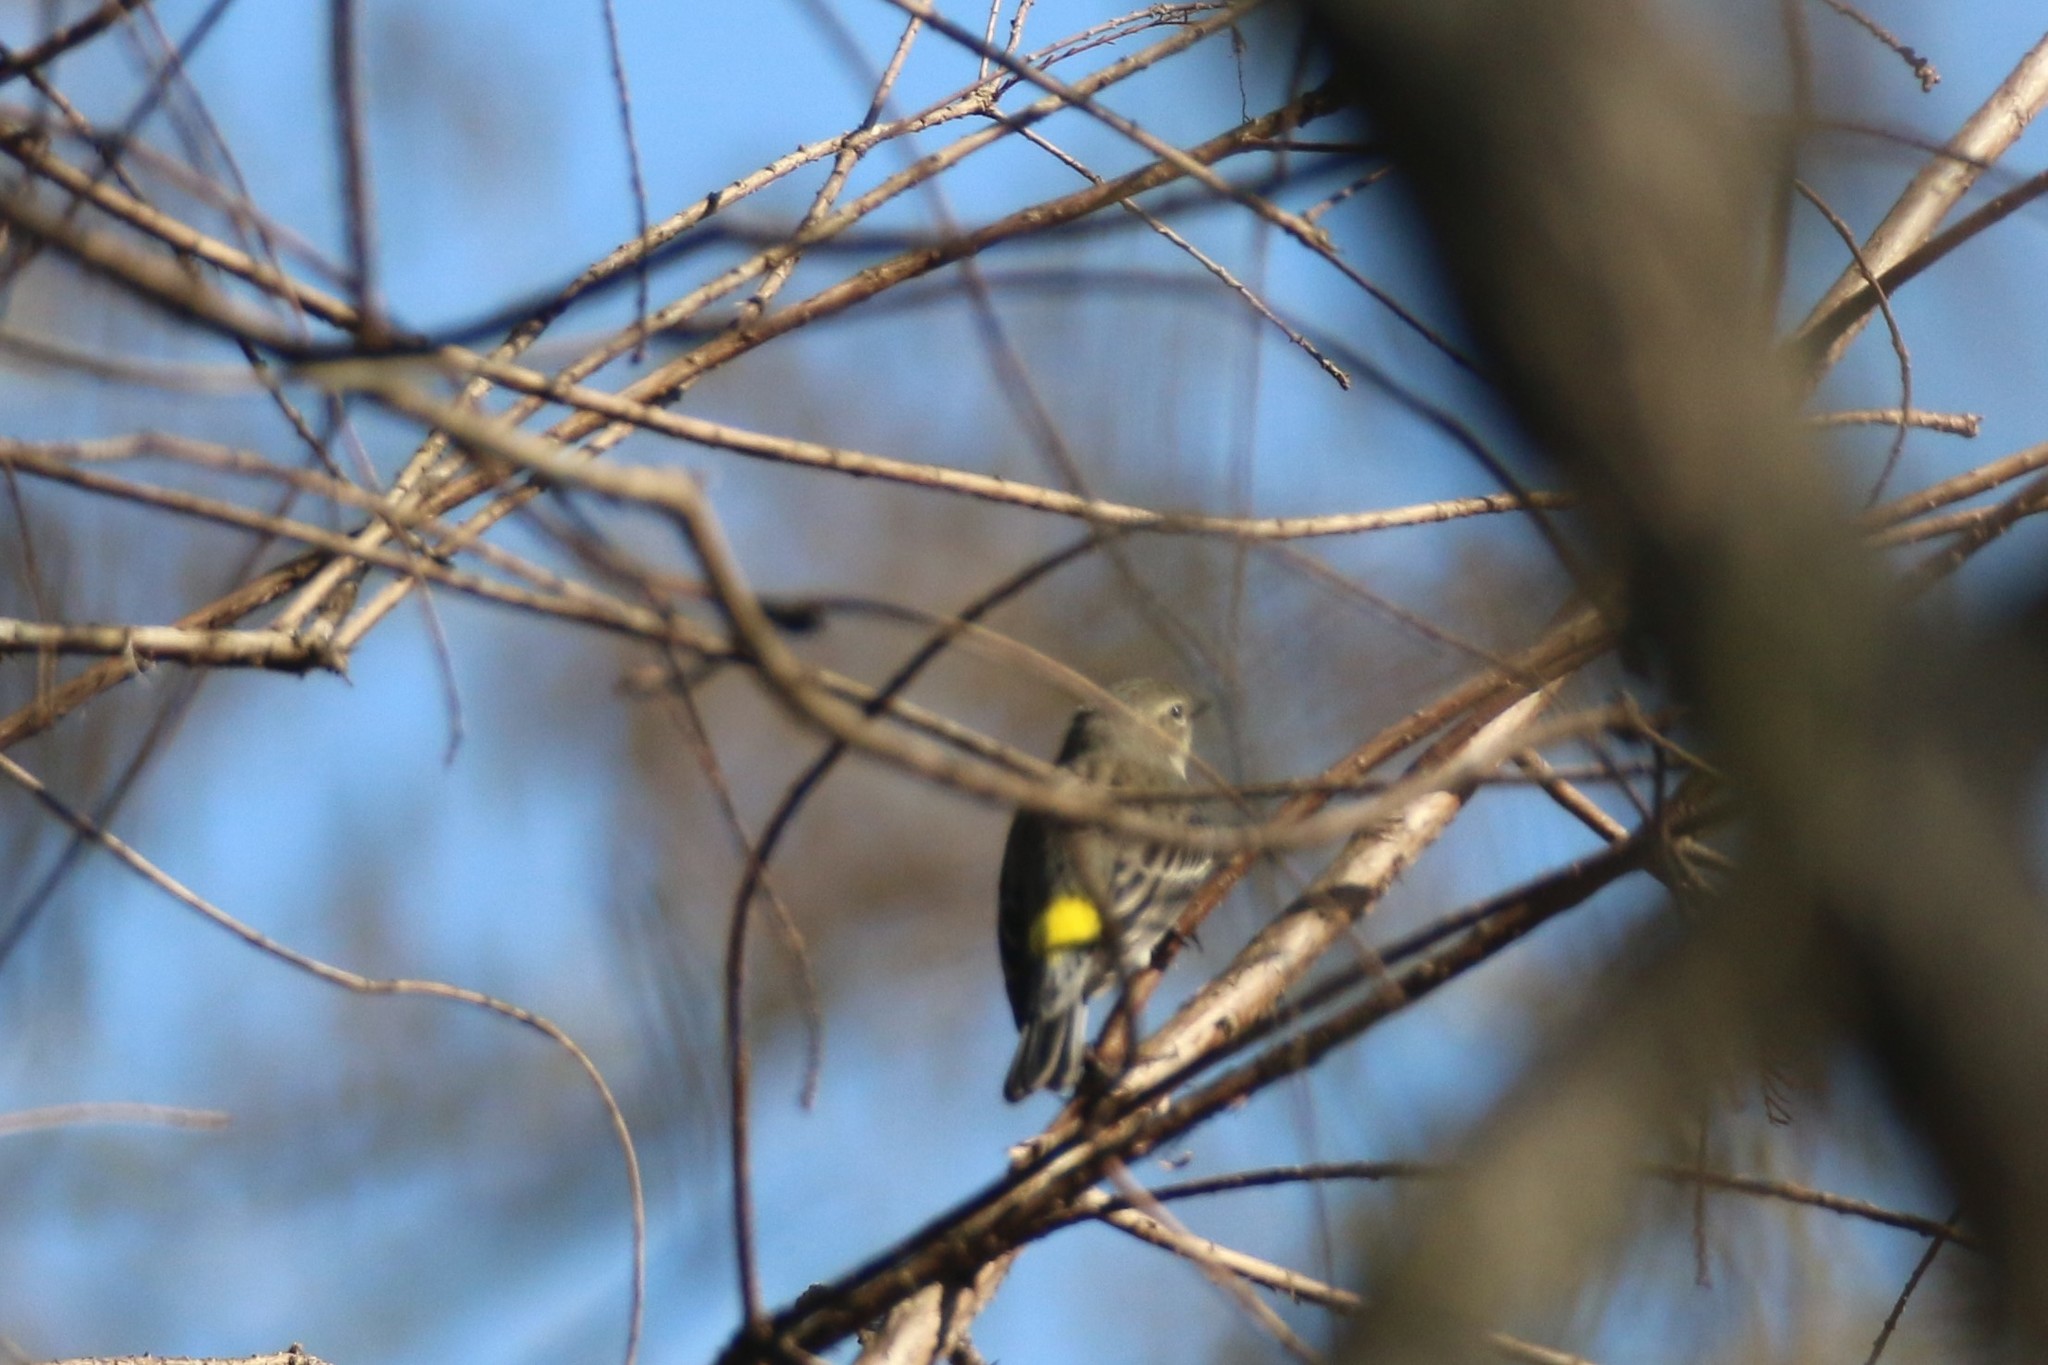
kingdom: Animalia
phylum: Chordata
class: Aves
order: Passeriformes
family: Parulidae
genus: Setophaga
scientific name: Setophaga coronata
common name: Myrtle warbler
